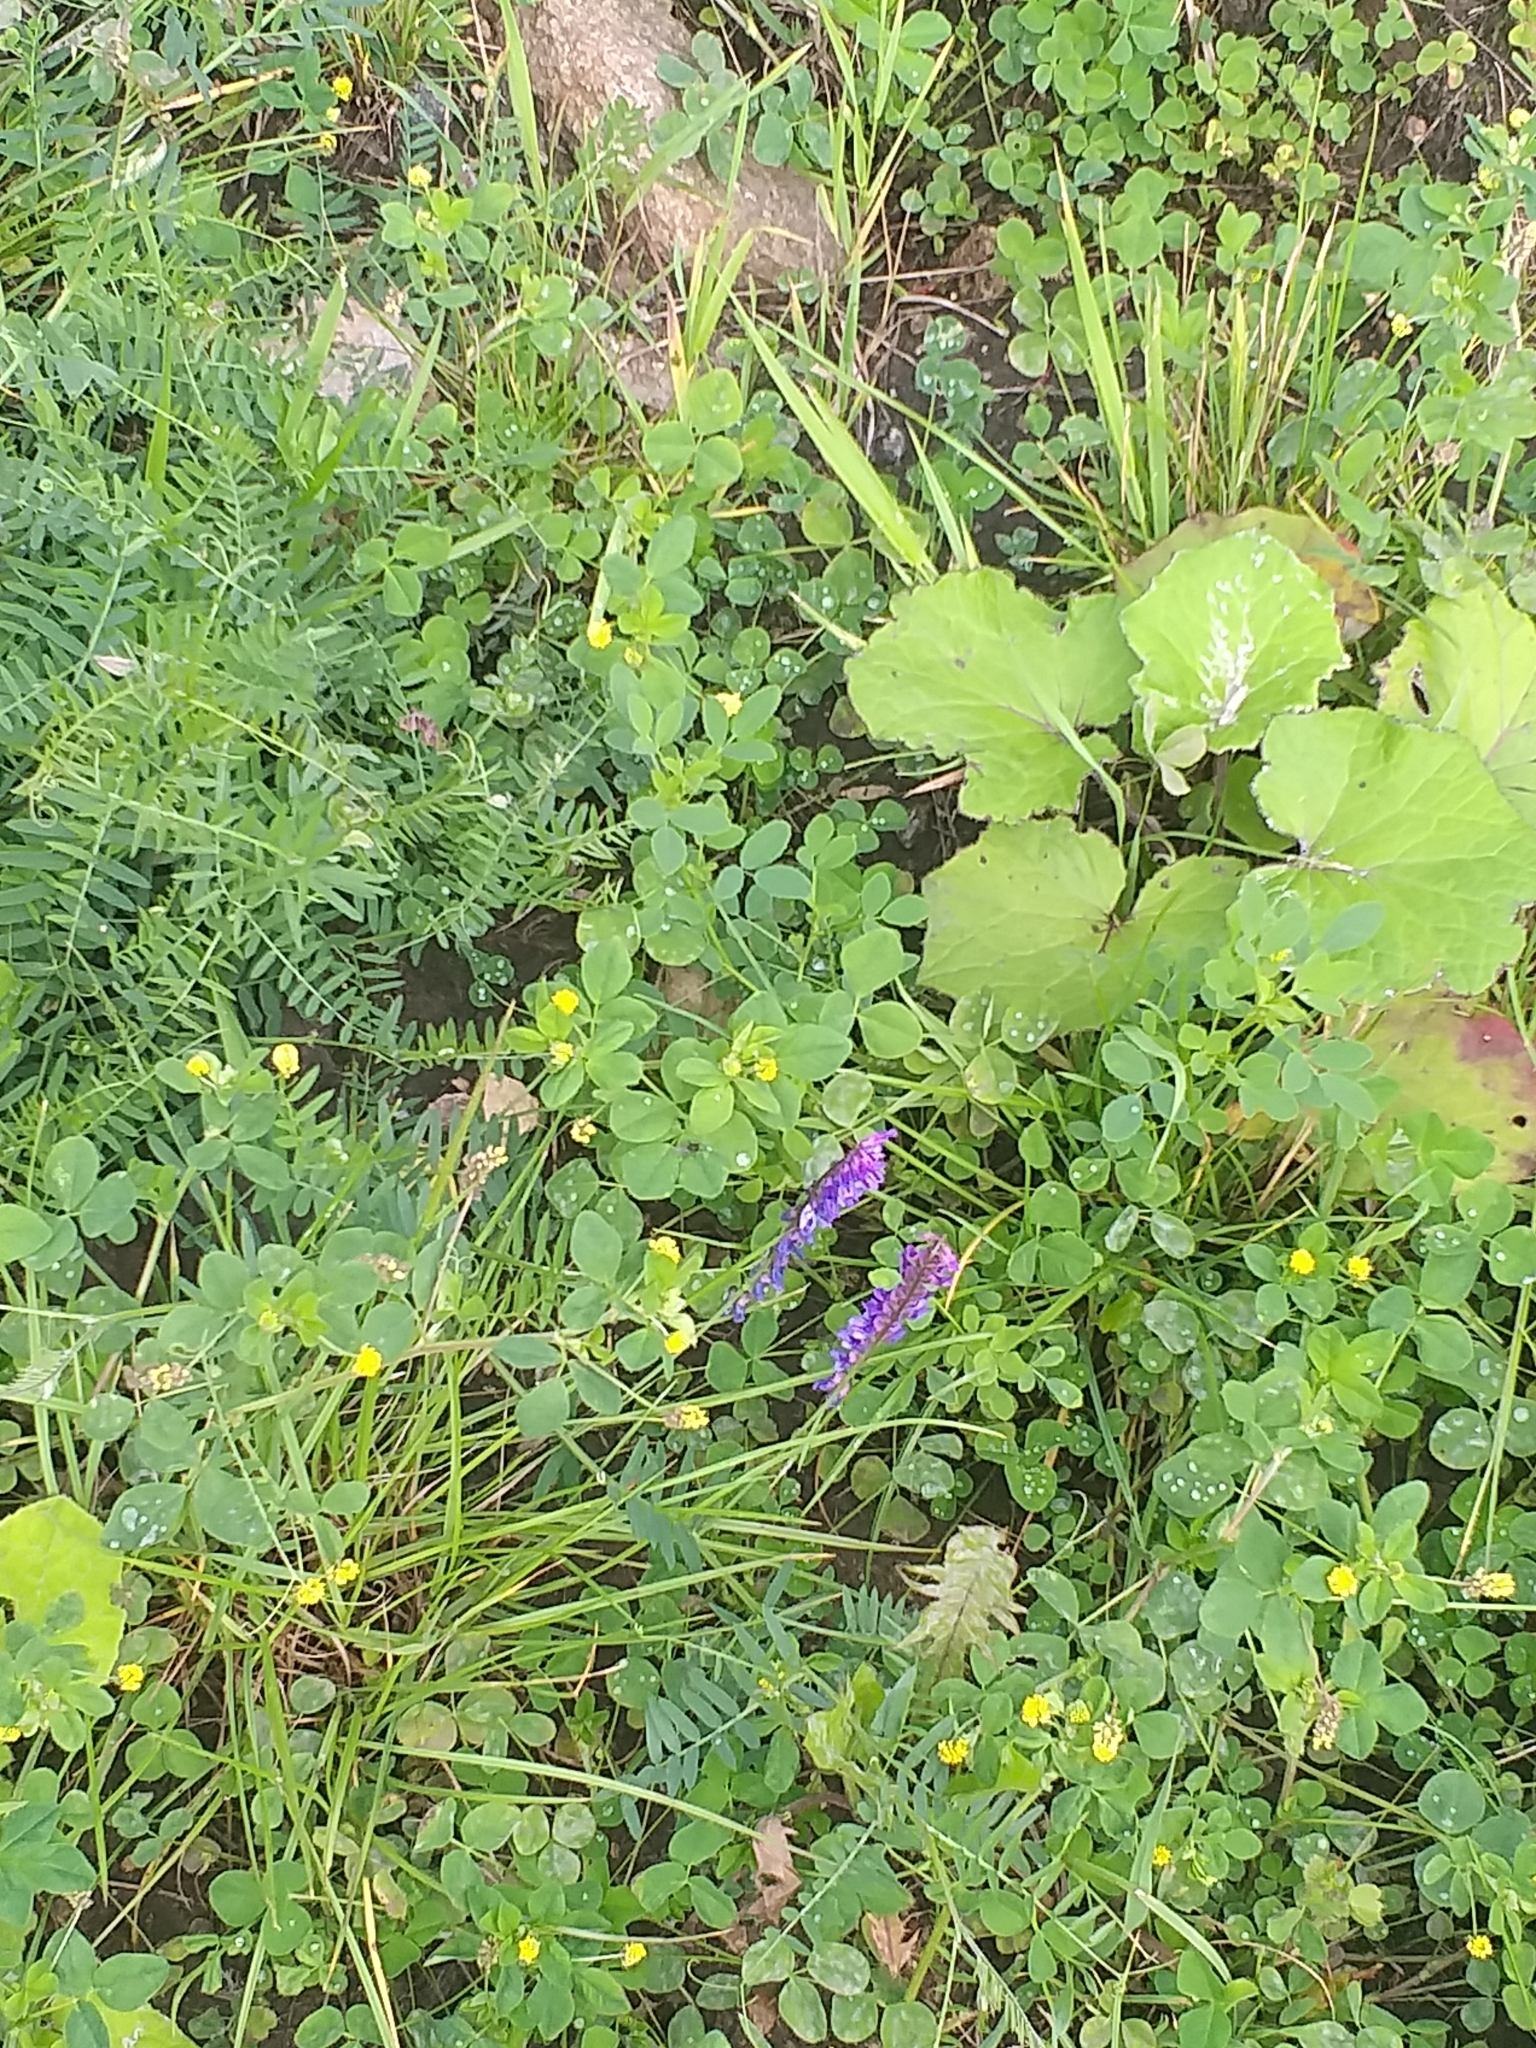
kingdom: Plantae
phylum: Tracheophyta
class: Magnoliopsida
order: Fabales
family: Fabaceae
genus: Vicia
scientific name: Vicia cracca
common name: Bird vetch
